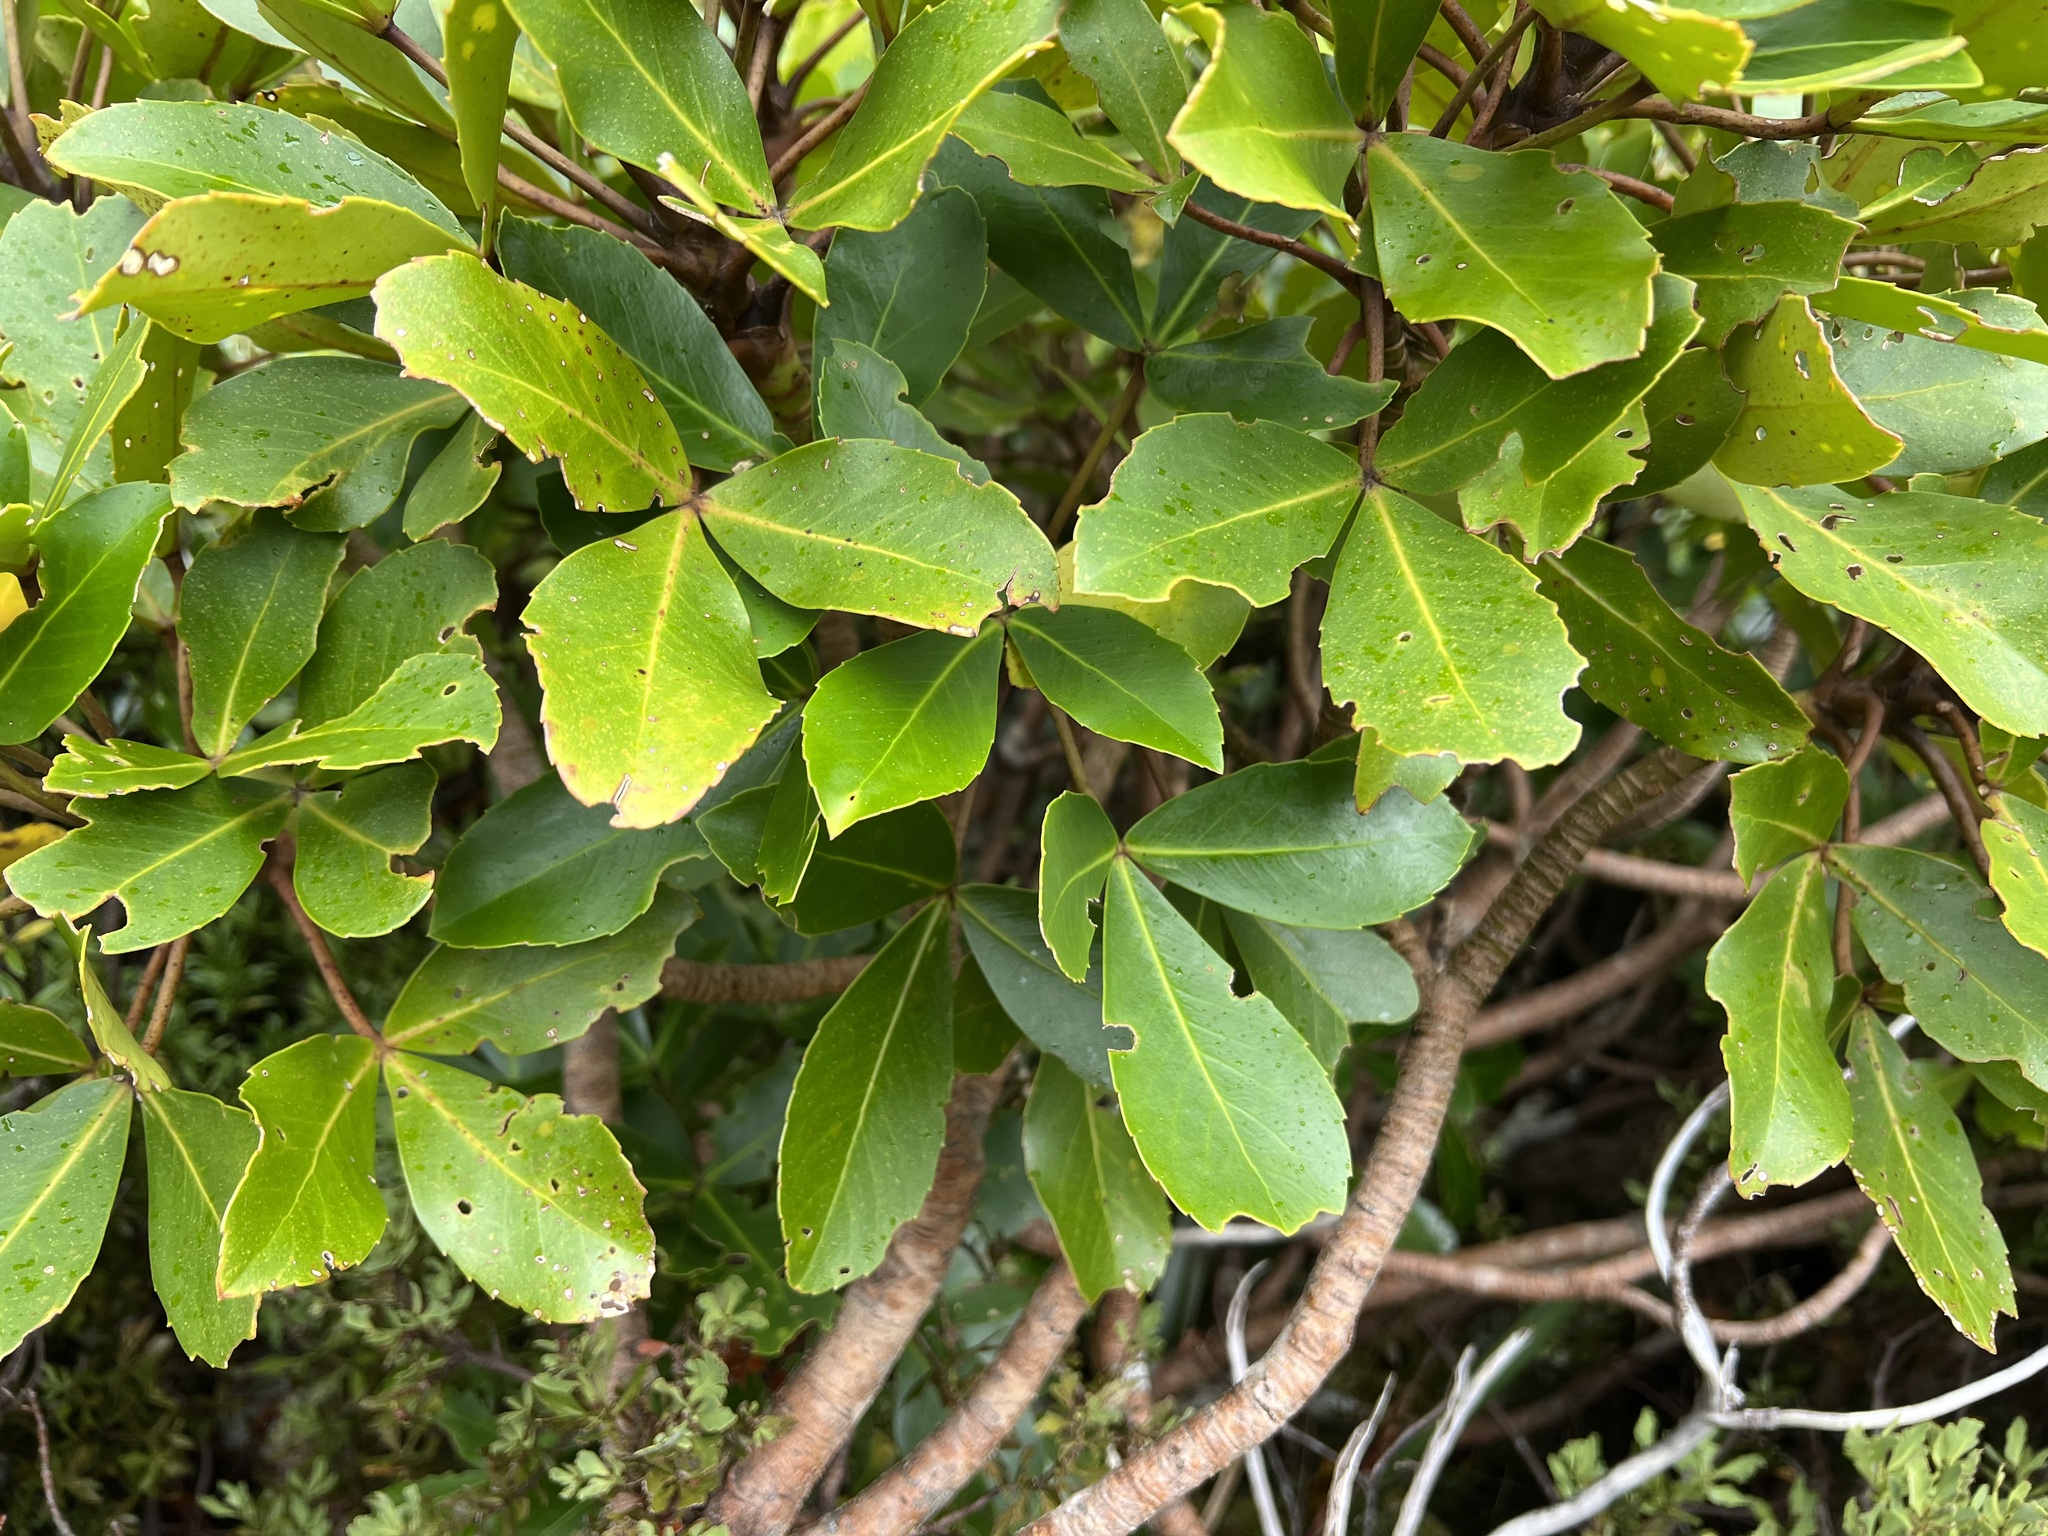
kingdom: Plantae
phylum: Tracheophyta
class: Magnoliopsida
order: Apiales
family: Araliaceae
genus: Neopanax
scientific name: Neopanax colensoi
